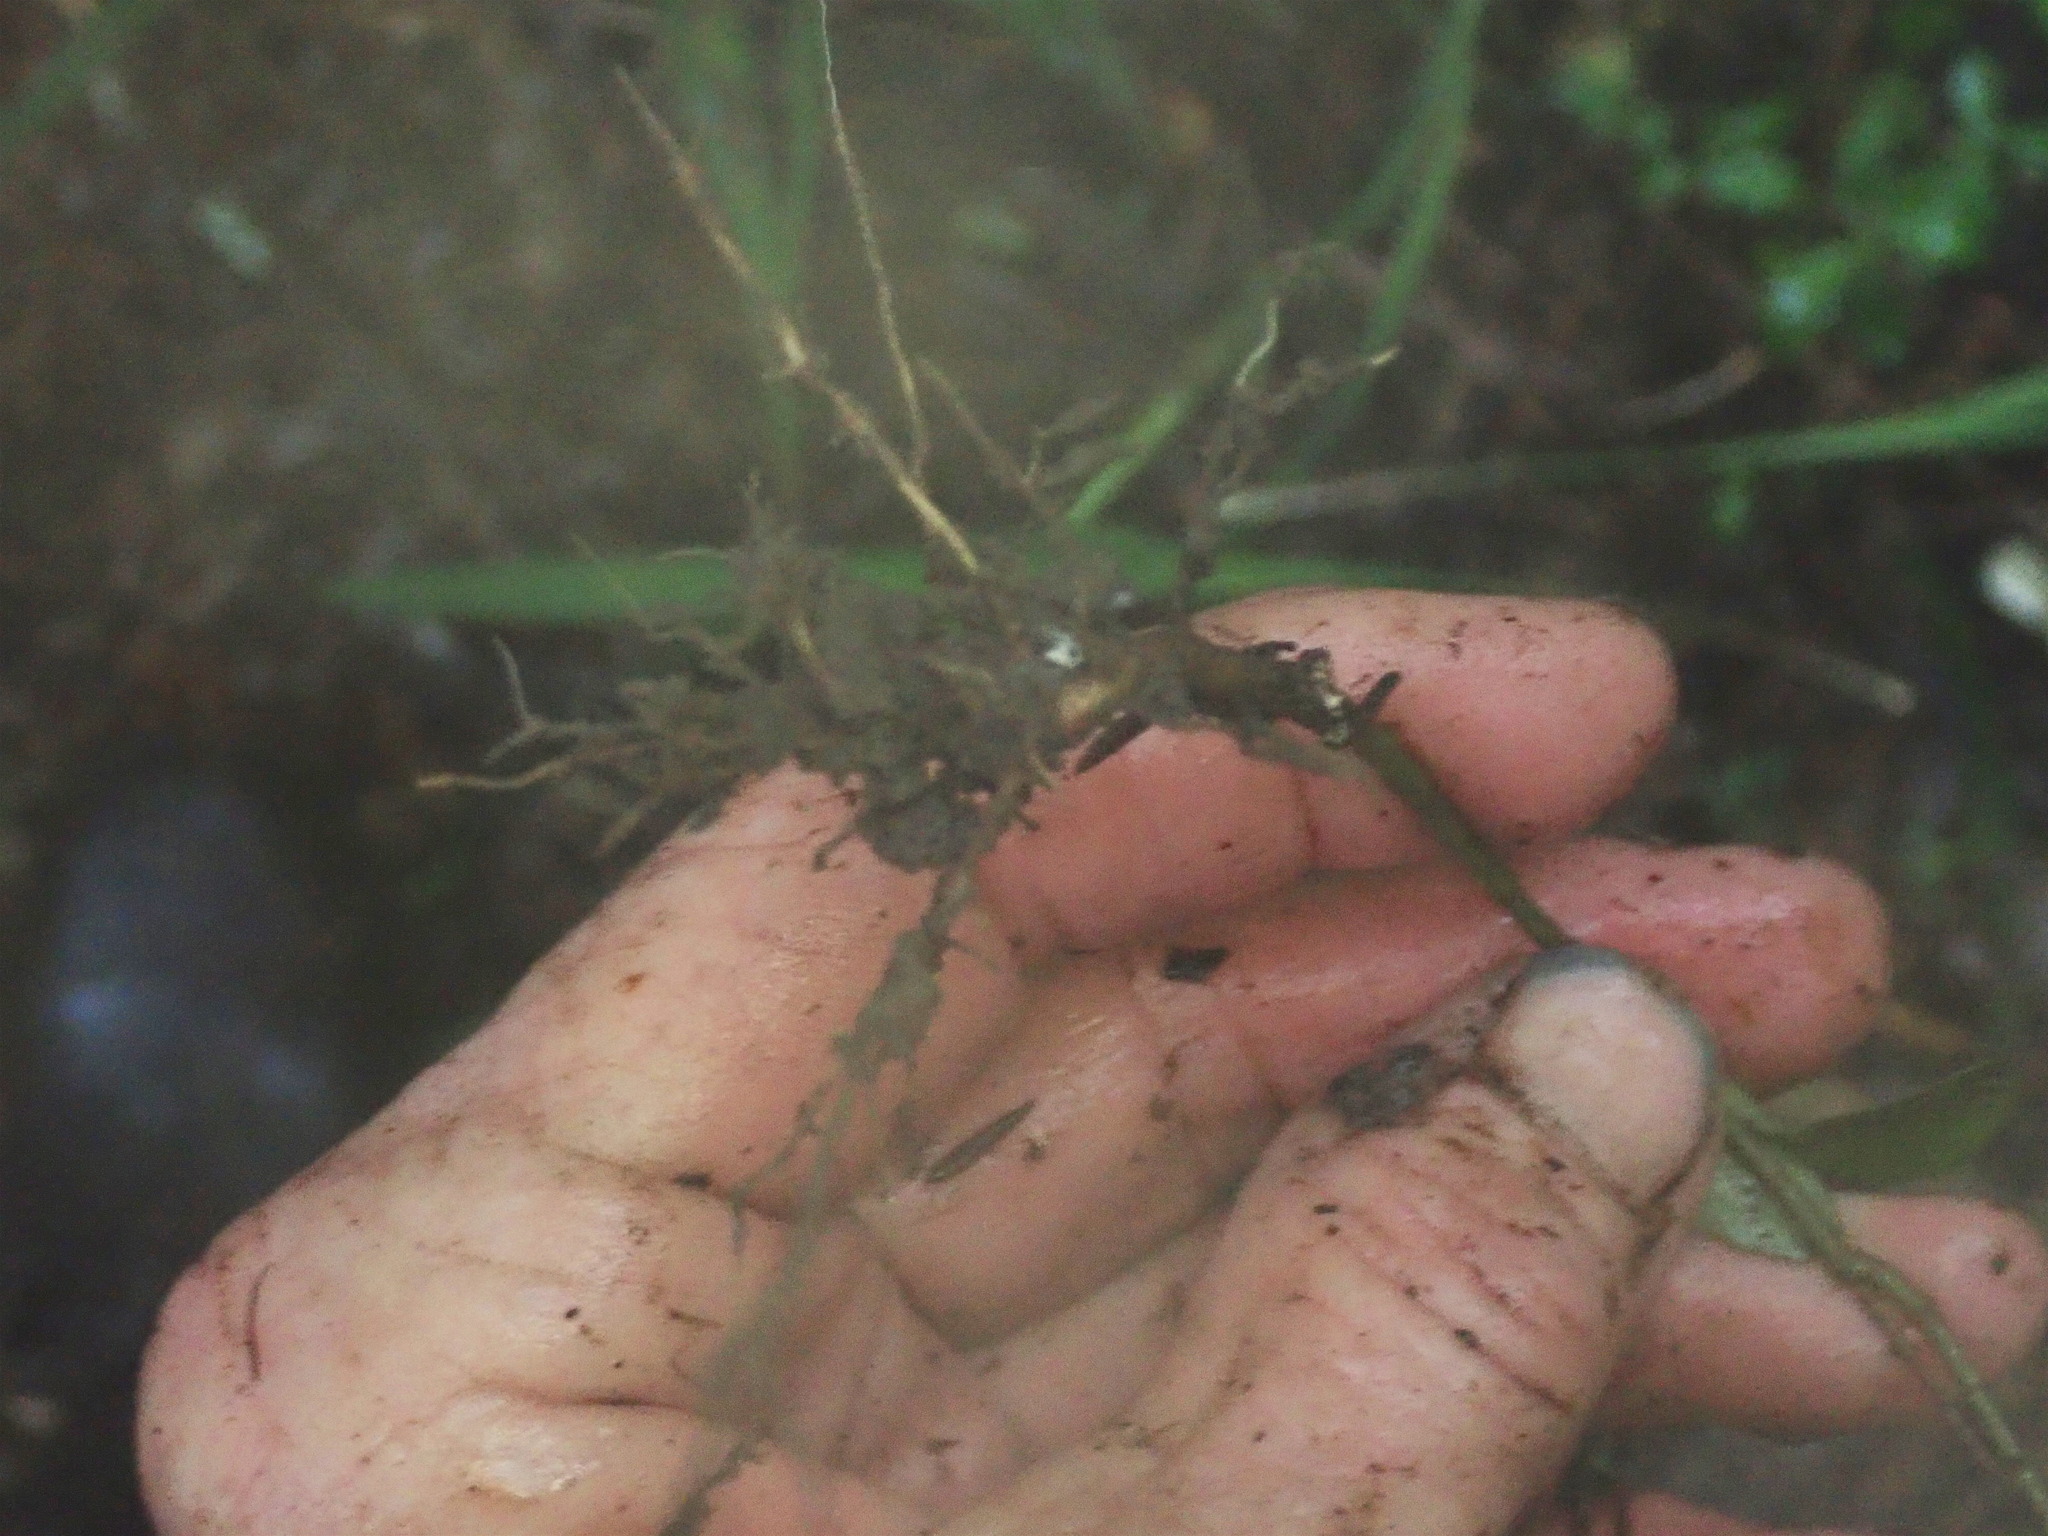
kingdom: Plantae
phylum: Tracheophyta
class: Magnoliopsida
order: Lamiales
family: Oleaceae
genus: Ligustrum
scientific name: Ligustrum lucidum
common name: Glossy privet
